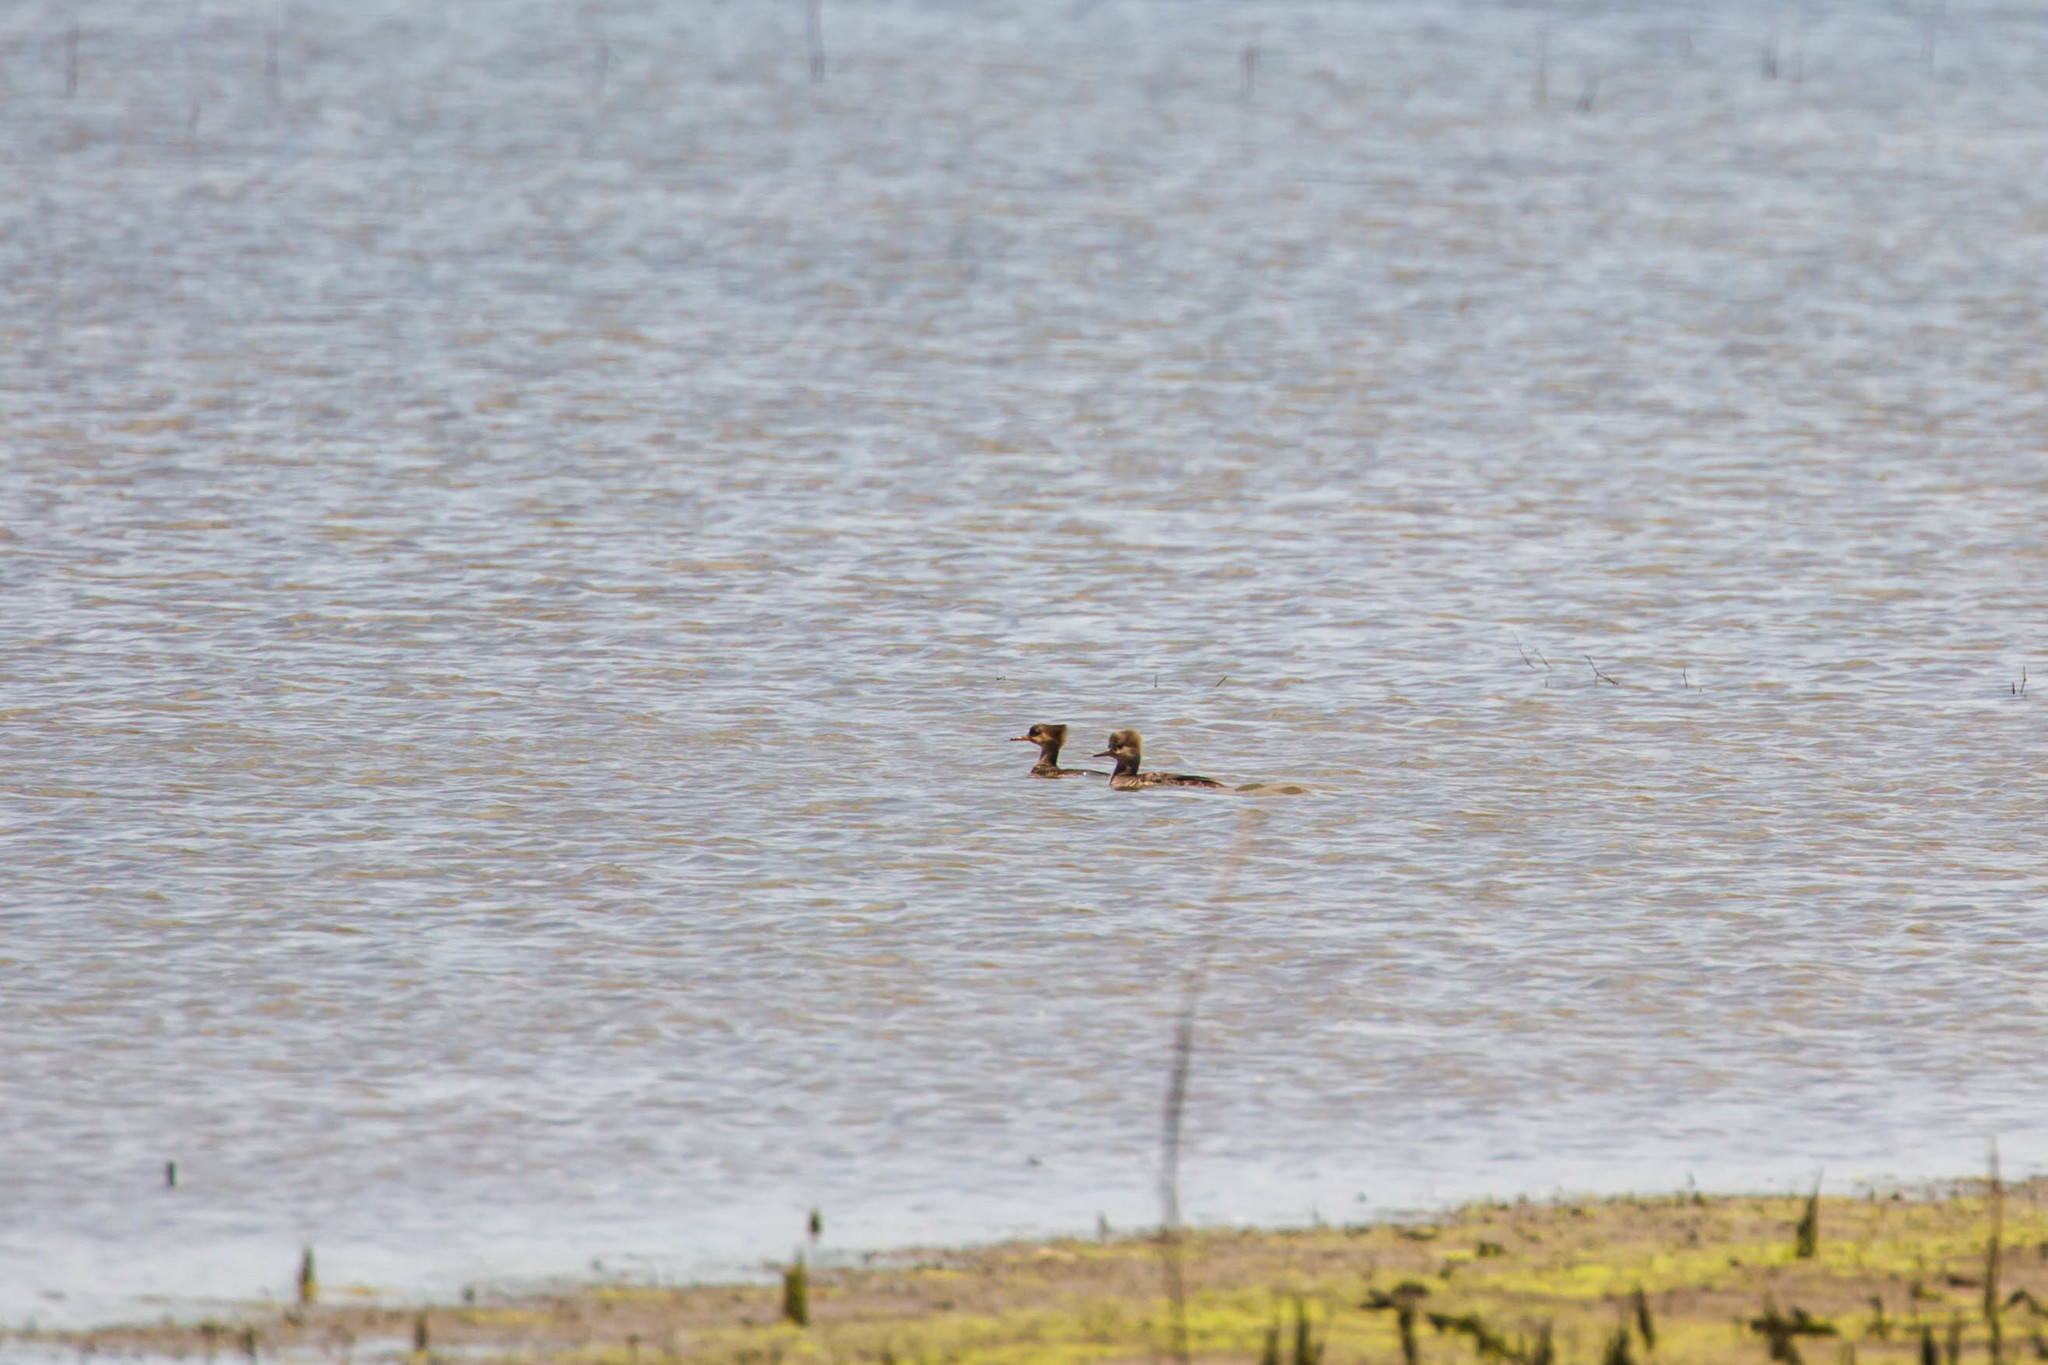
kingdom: Animalia
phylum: Chordata
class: Aves
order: Anseriformes
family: Anatidae
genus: Lophodytes
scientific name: Lophodytes cucullatus
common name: Hooded merganser
